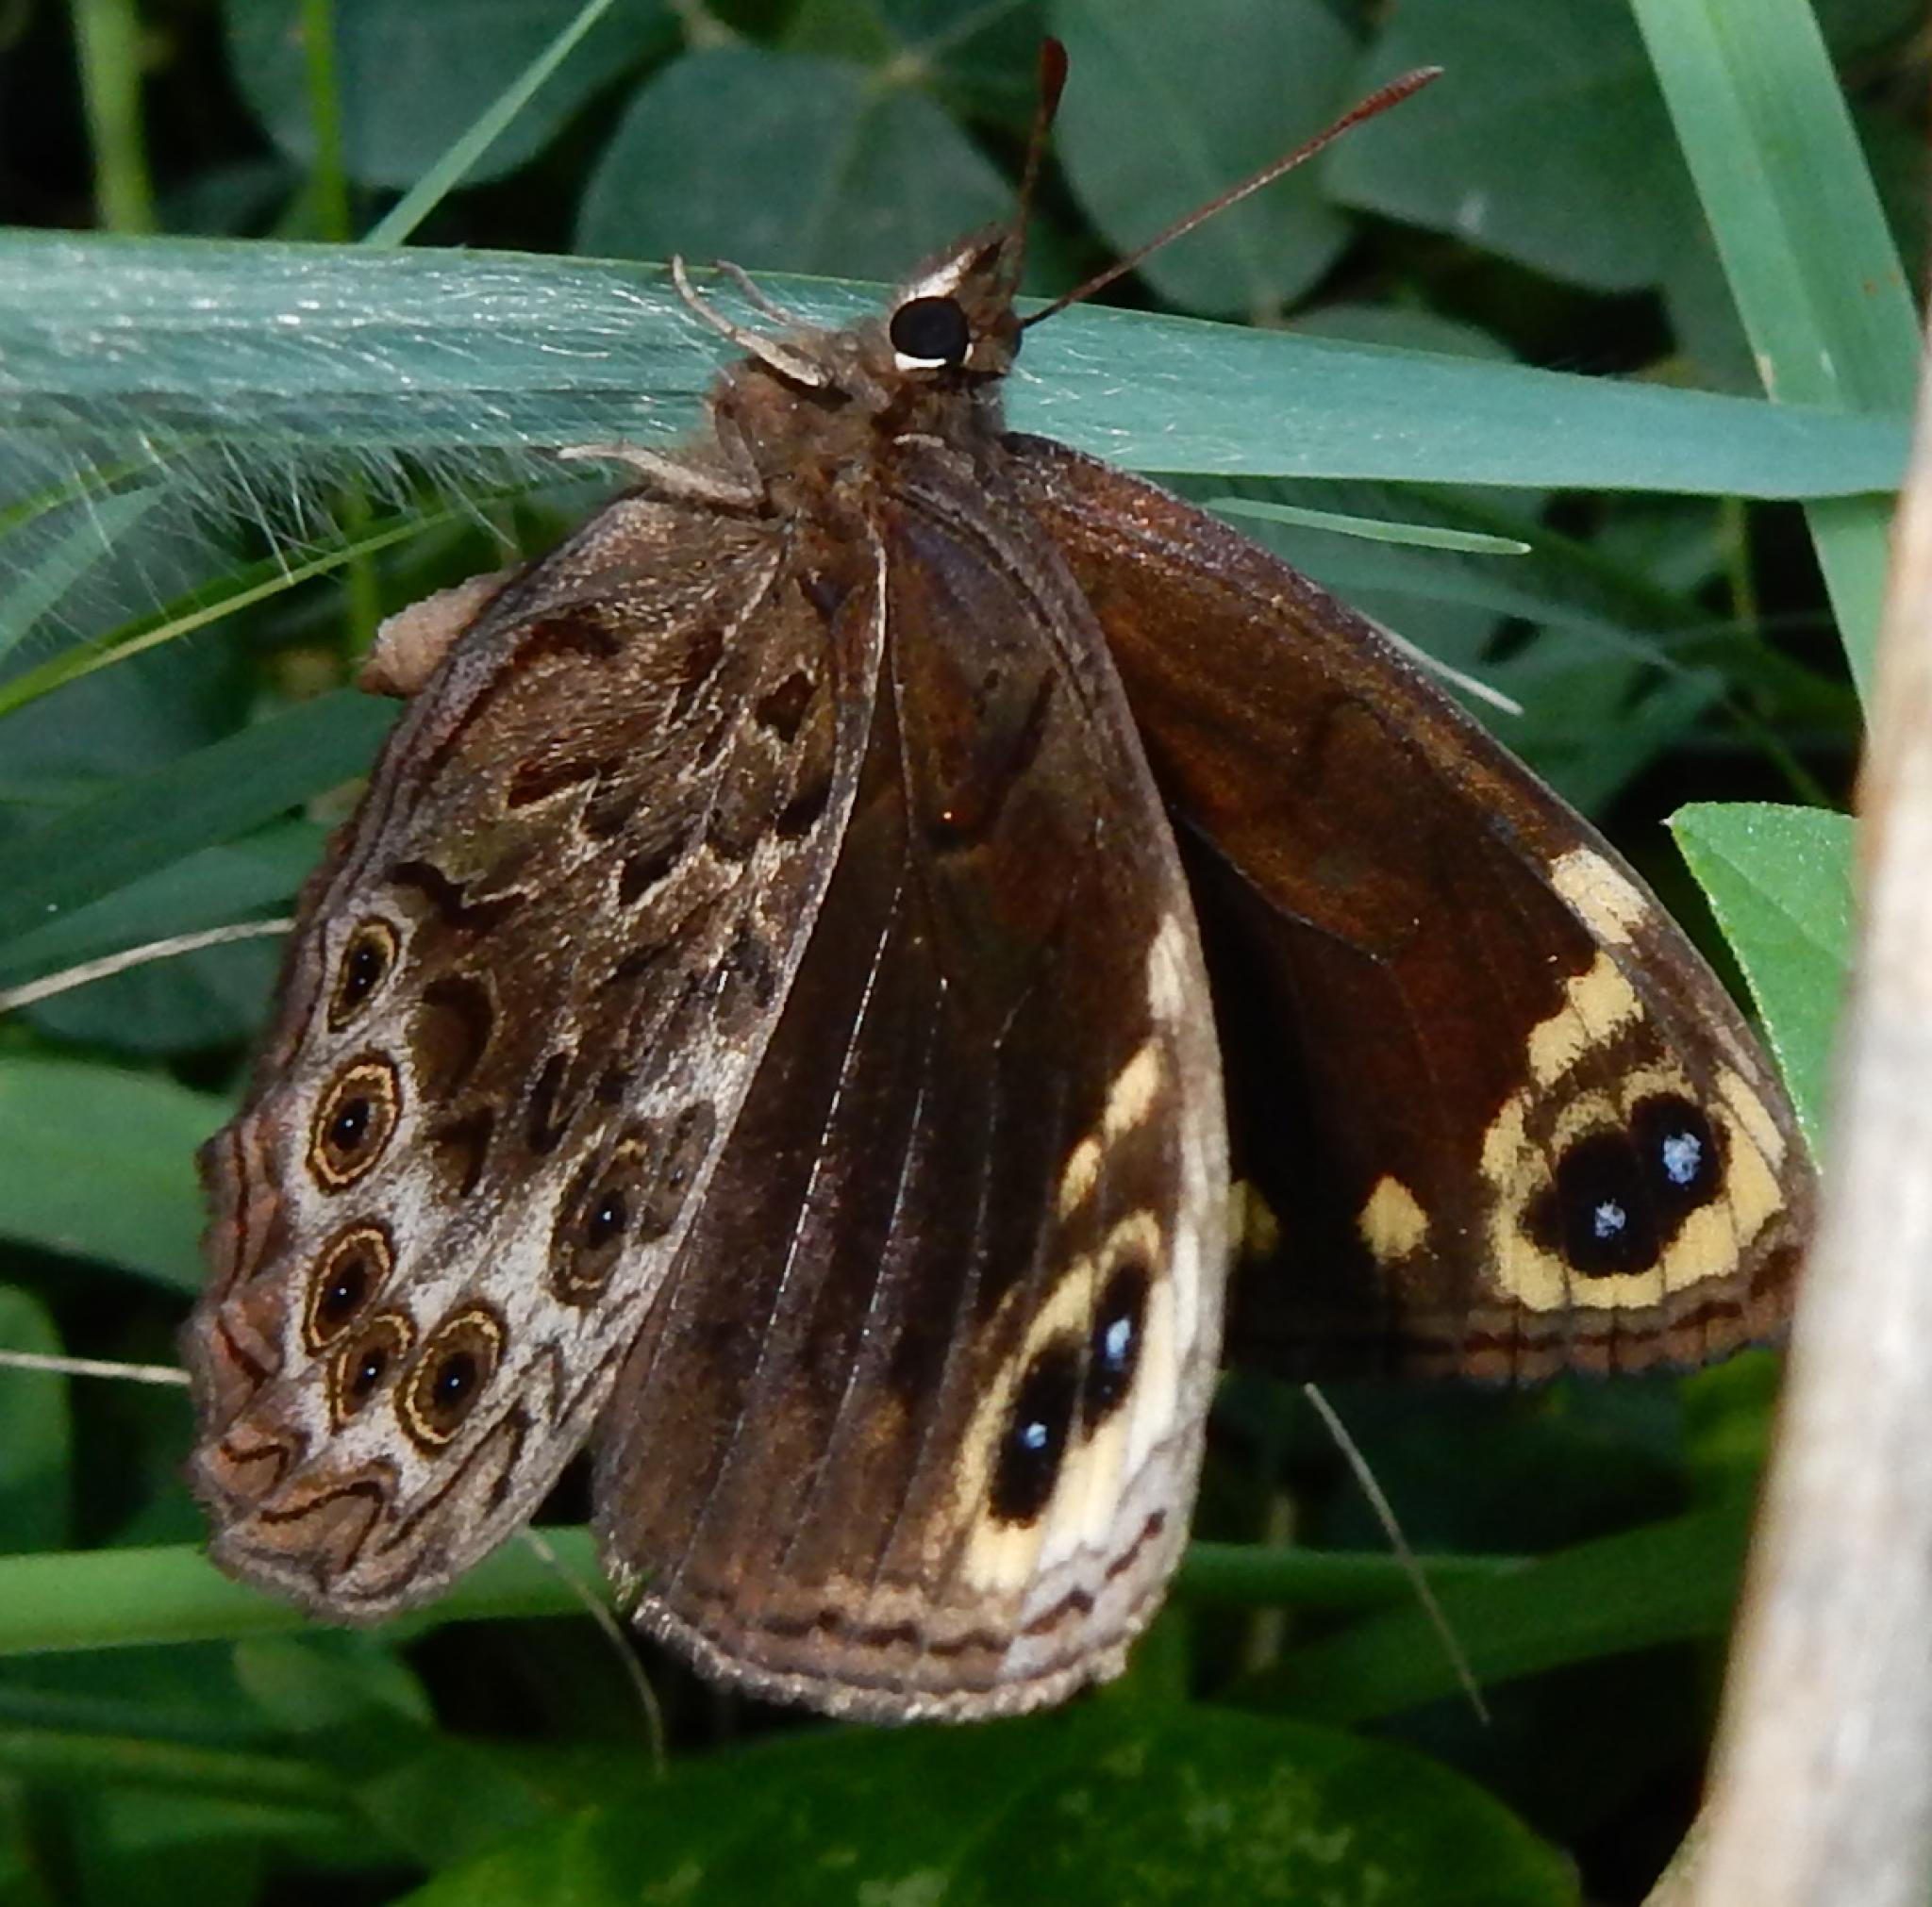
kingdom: Animalia
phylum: Arthropoda
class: Insecta
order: Lepidoptera
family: Nymphalidae
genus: Dira
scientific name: Dira clytus
